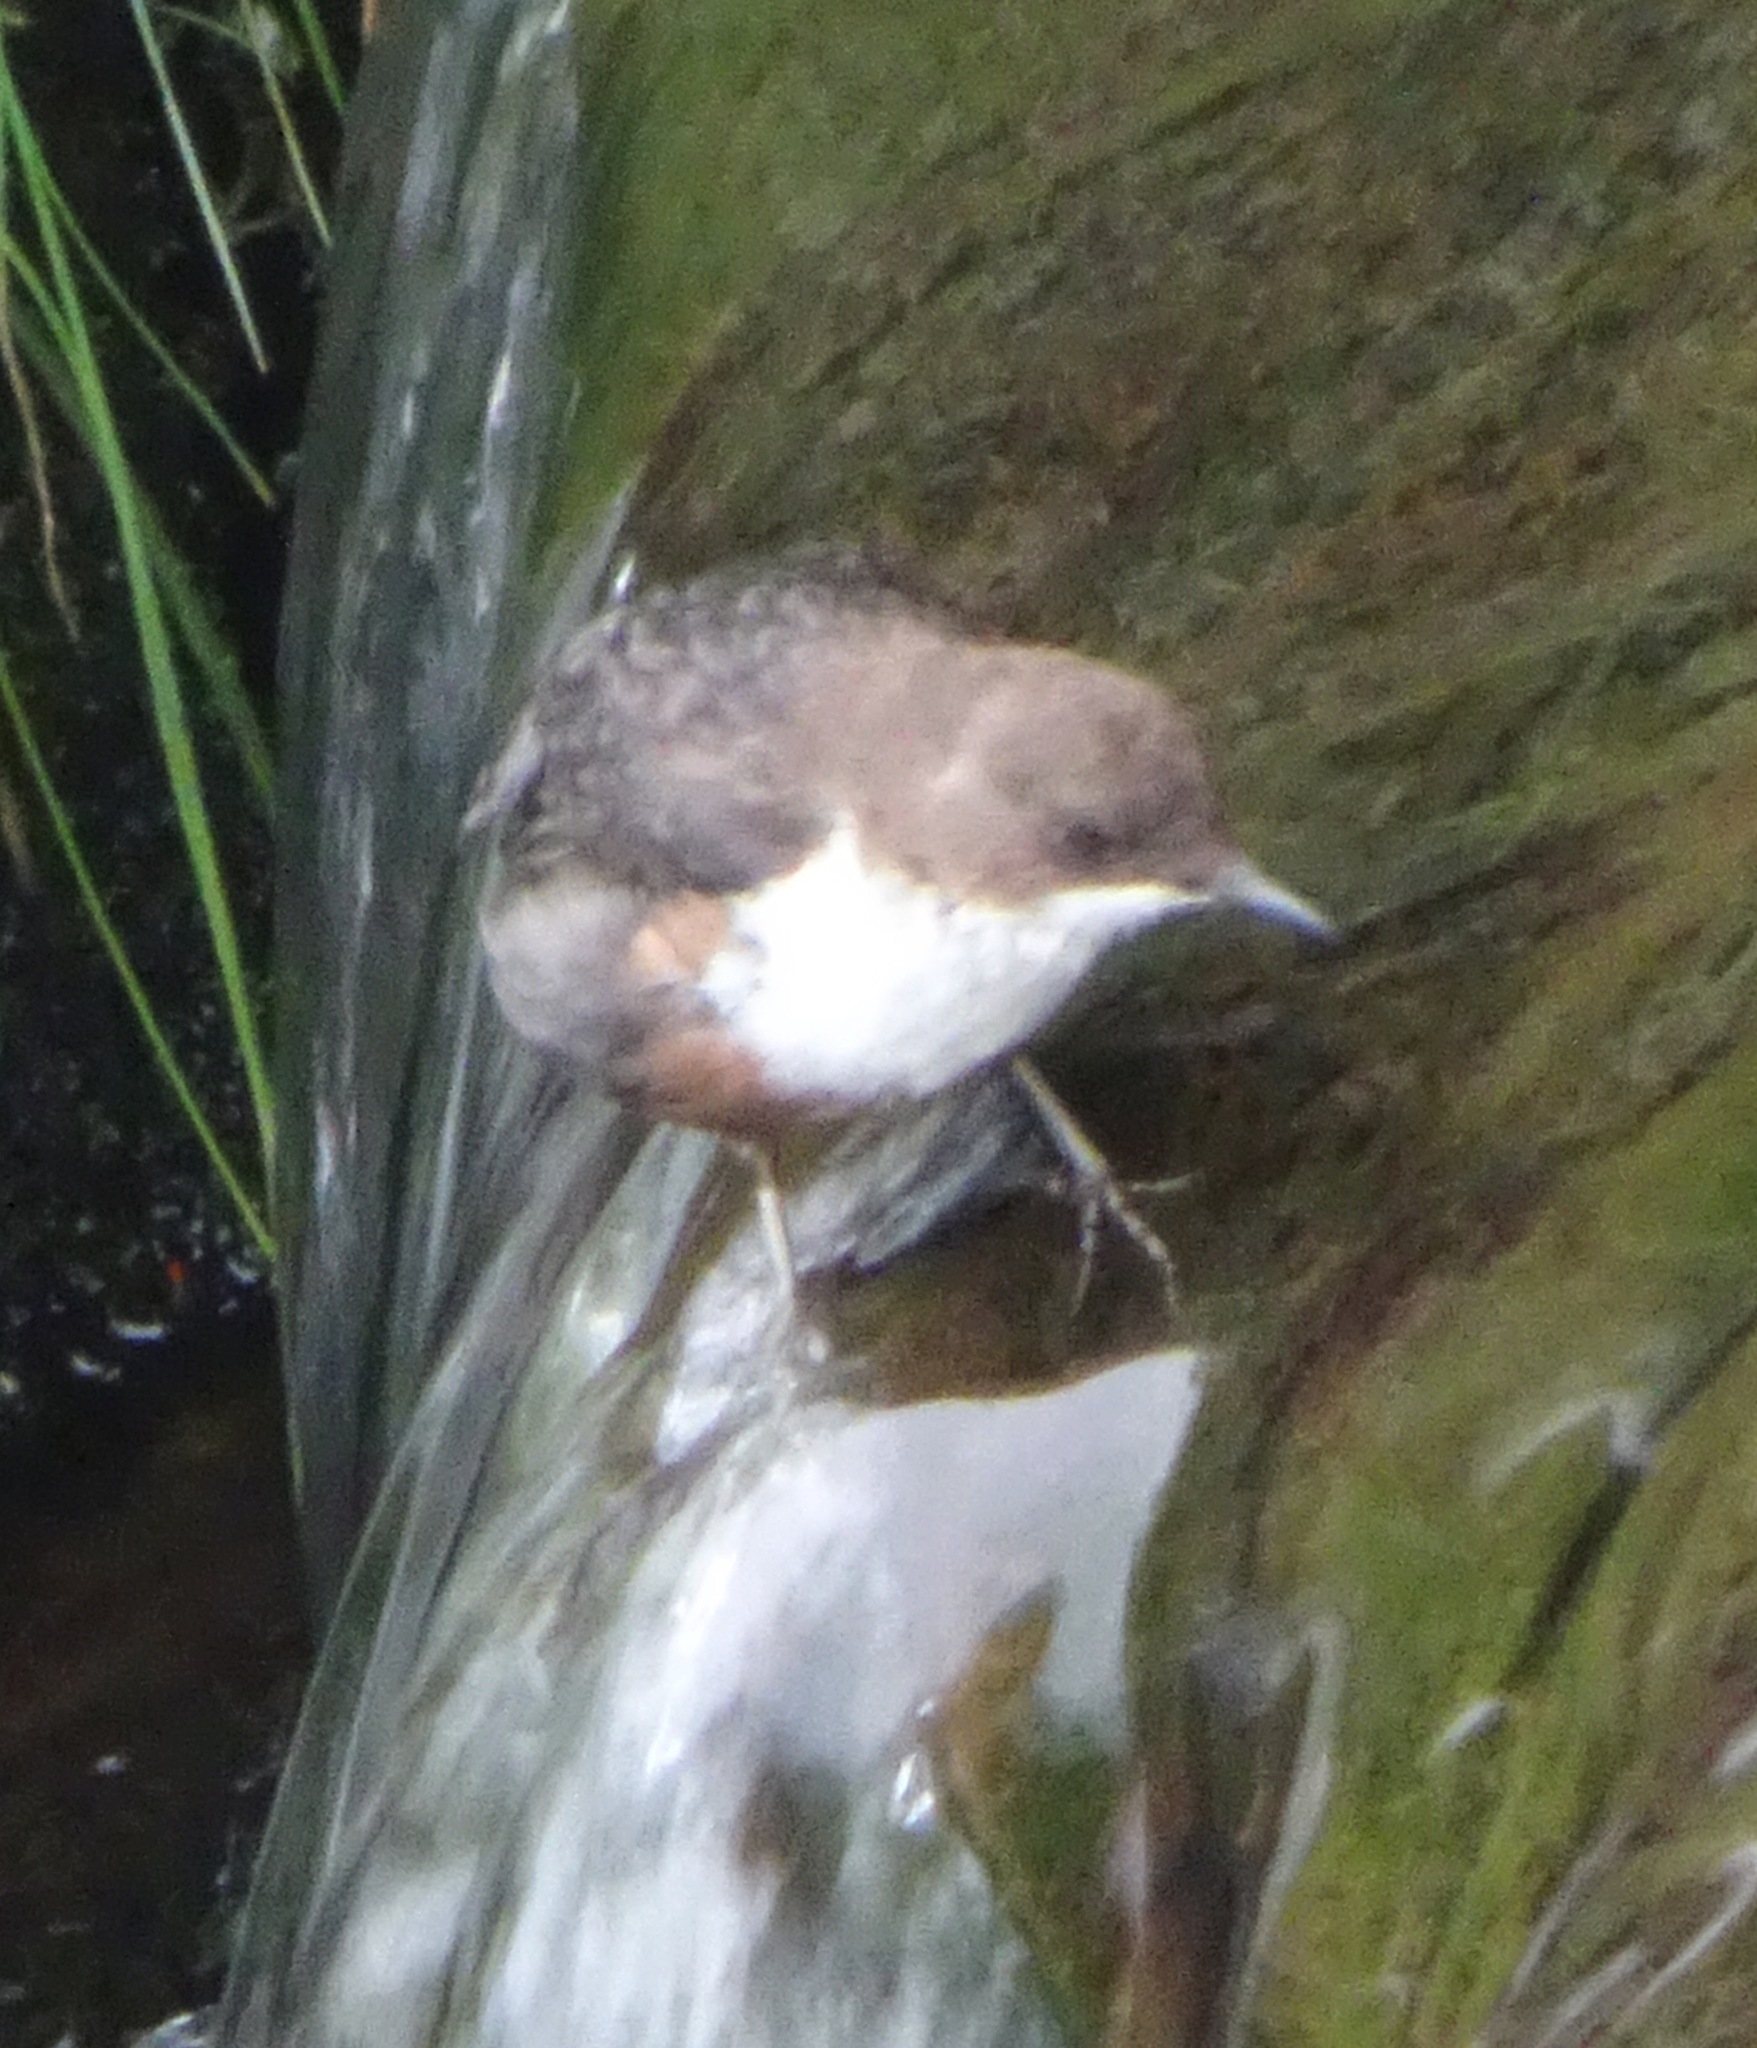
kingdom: Animalia
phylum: Chordata
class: Aves
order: Passeriformes
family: Cinclidae
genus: Cinclus
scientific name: Cinclus cinclus
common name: White-throated dipper
